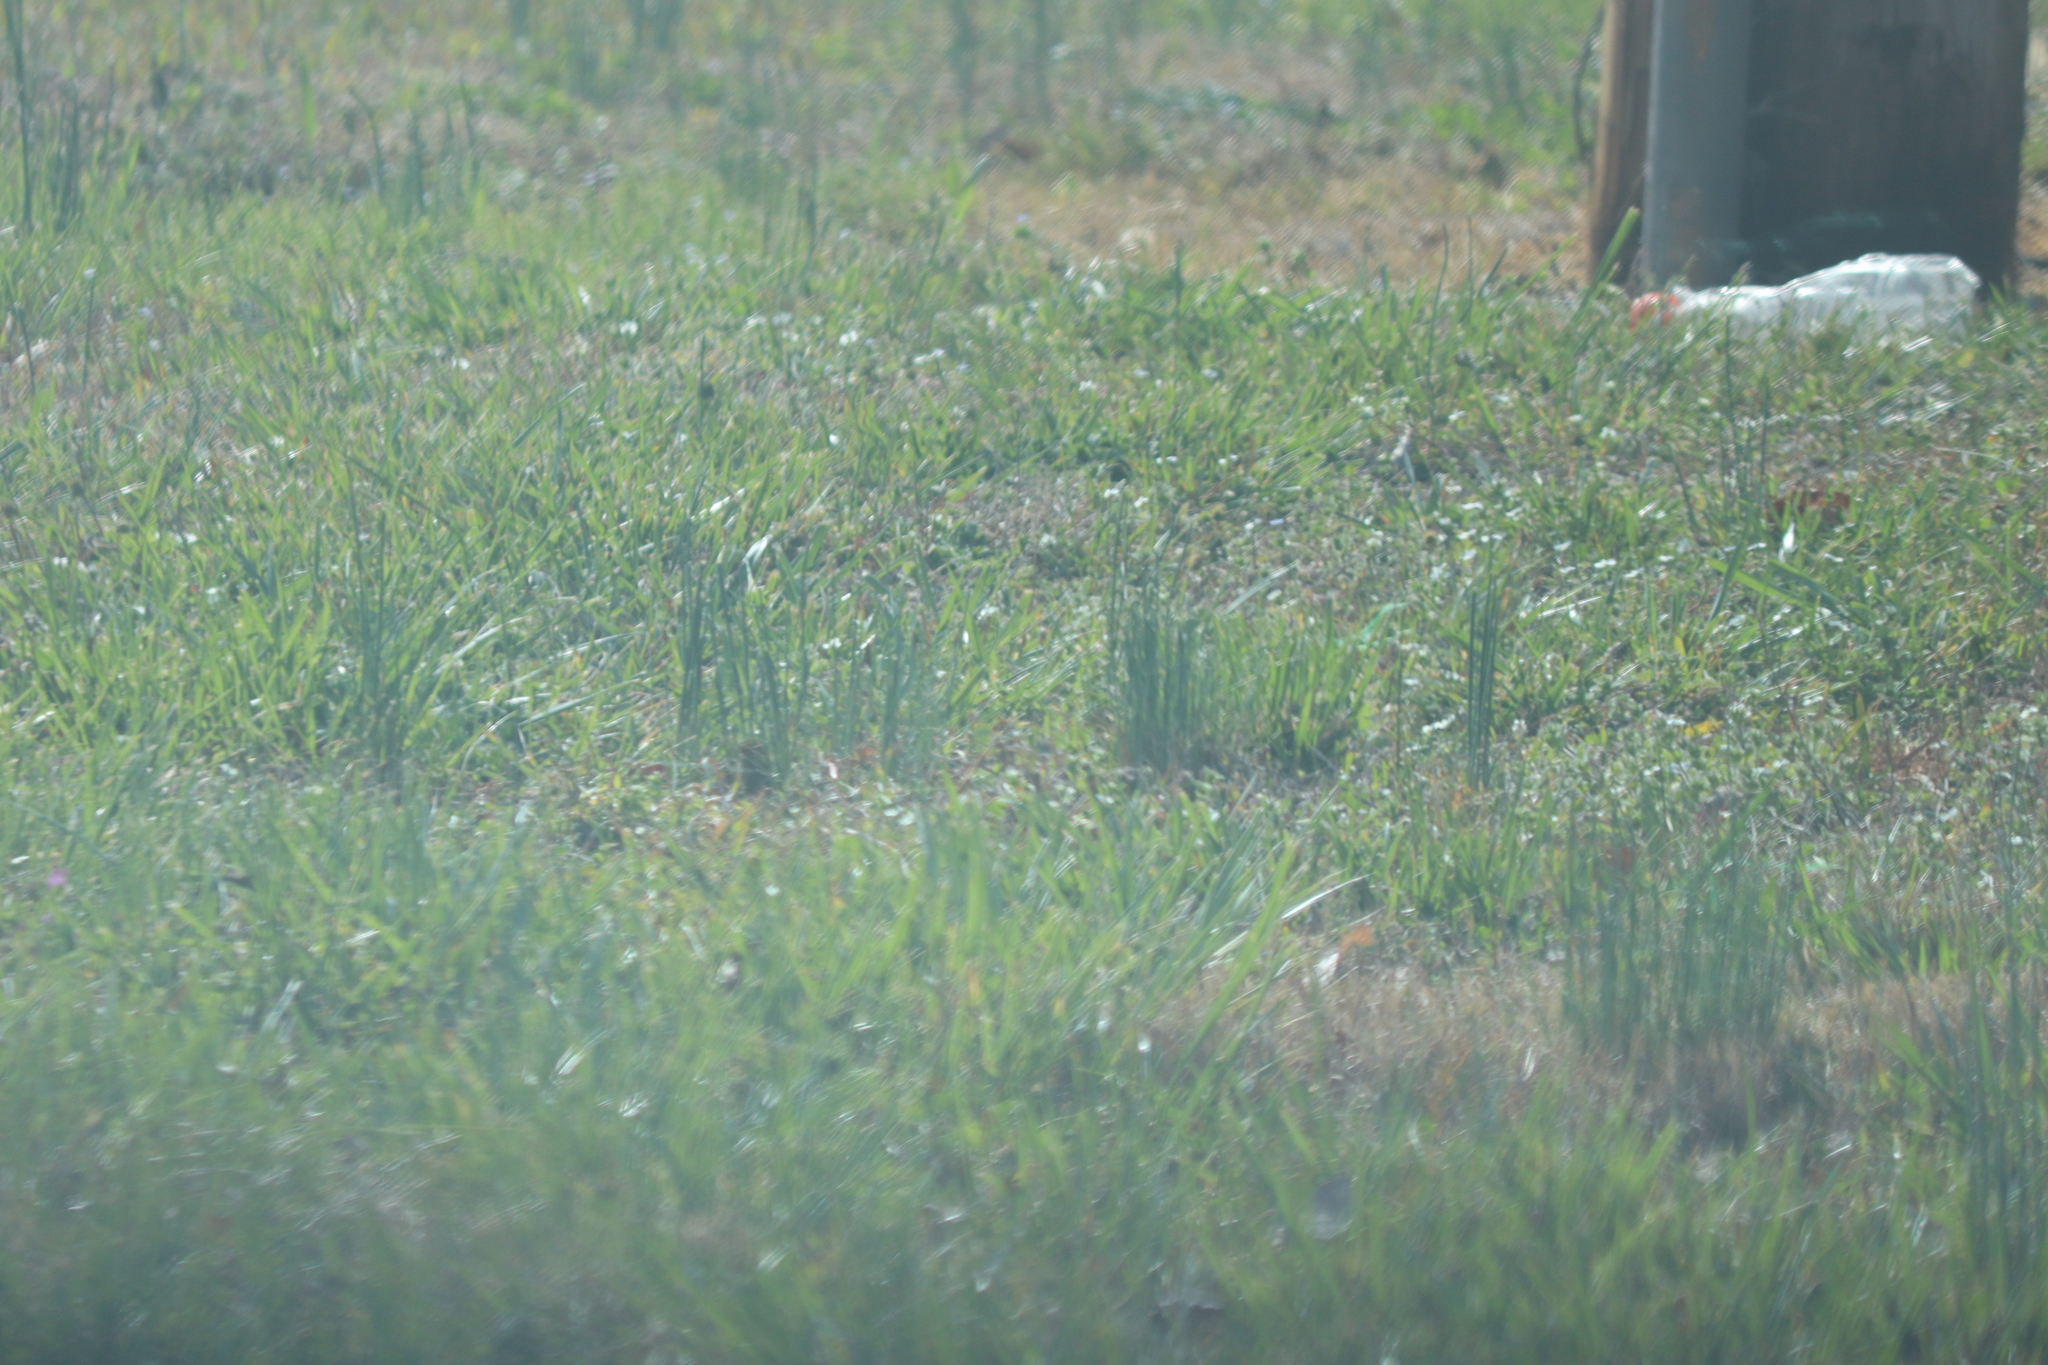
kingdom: Plantae
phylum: Tracheophyta
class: Liliopsida
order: Asparagales
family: Amaryllidaceae
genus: Allium
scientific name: Allium vineale
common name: Crow garlic
